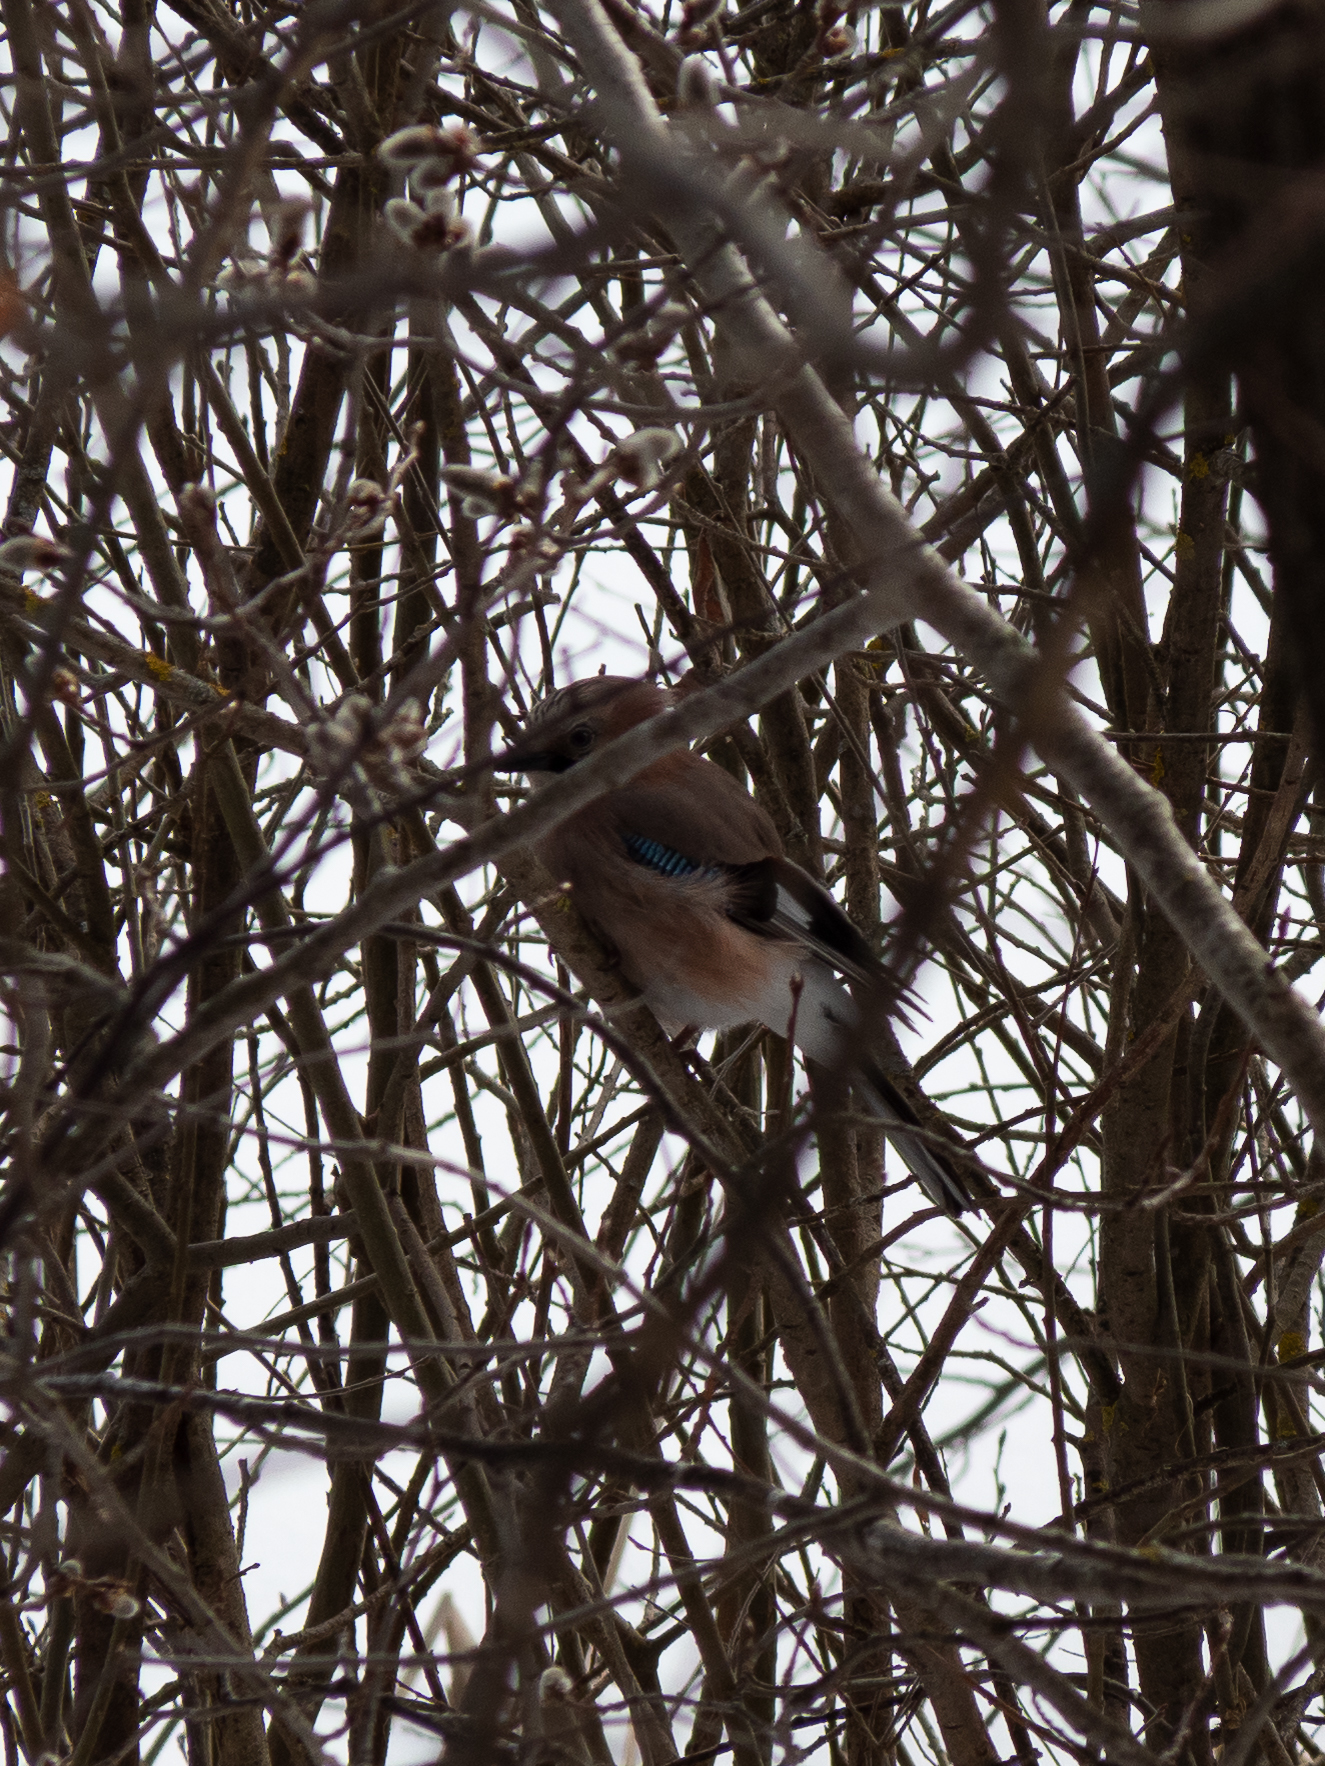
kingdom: Animalia
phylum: Chordata
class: Aves
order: Passeriformes
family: Corvidae
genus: Garrulus
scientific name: Garrulus glandarius
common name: Eurasian jay
